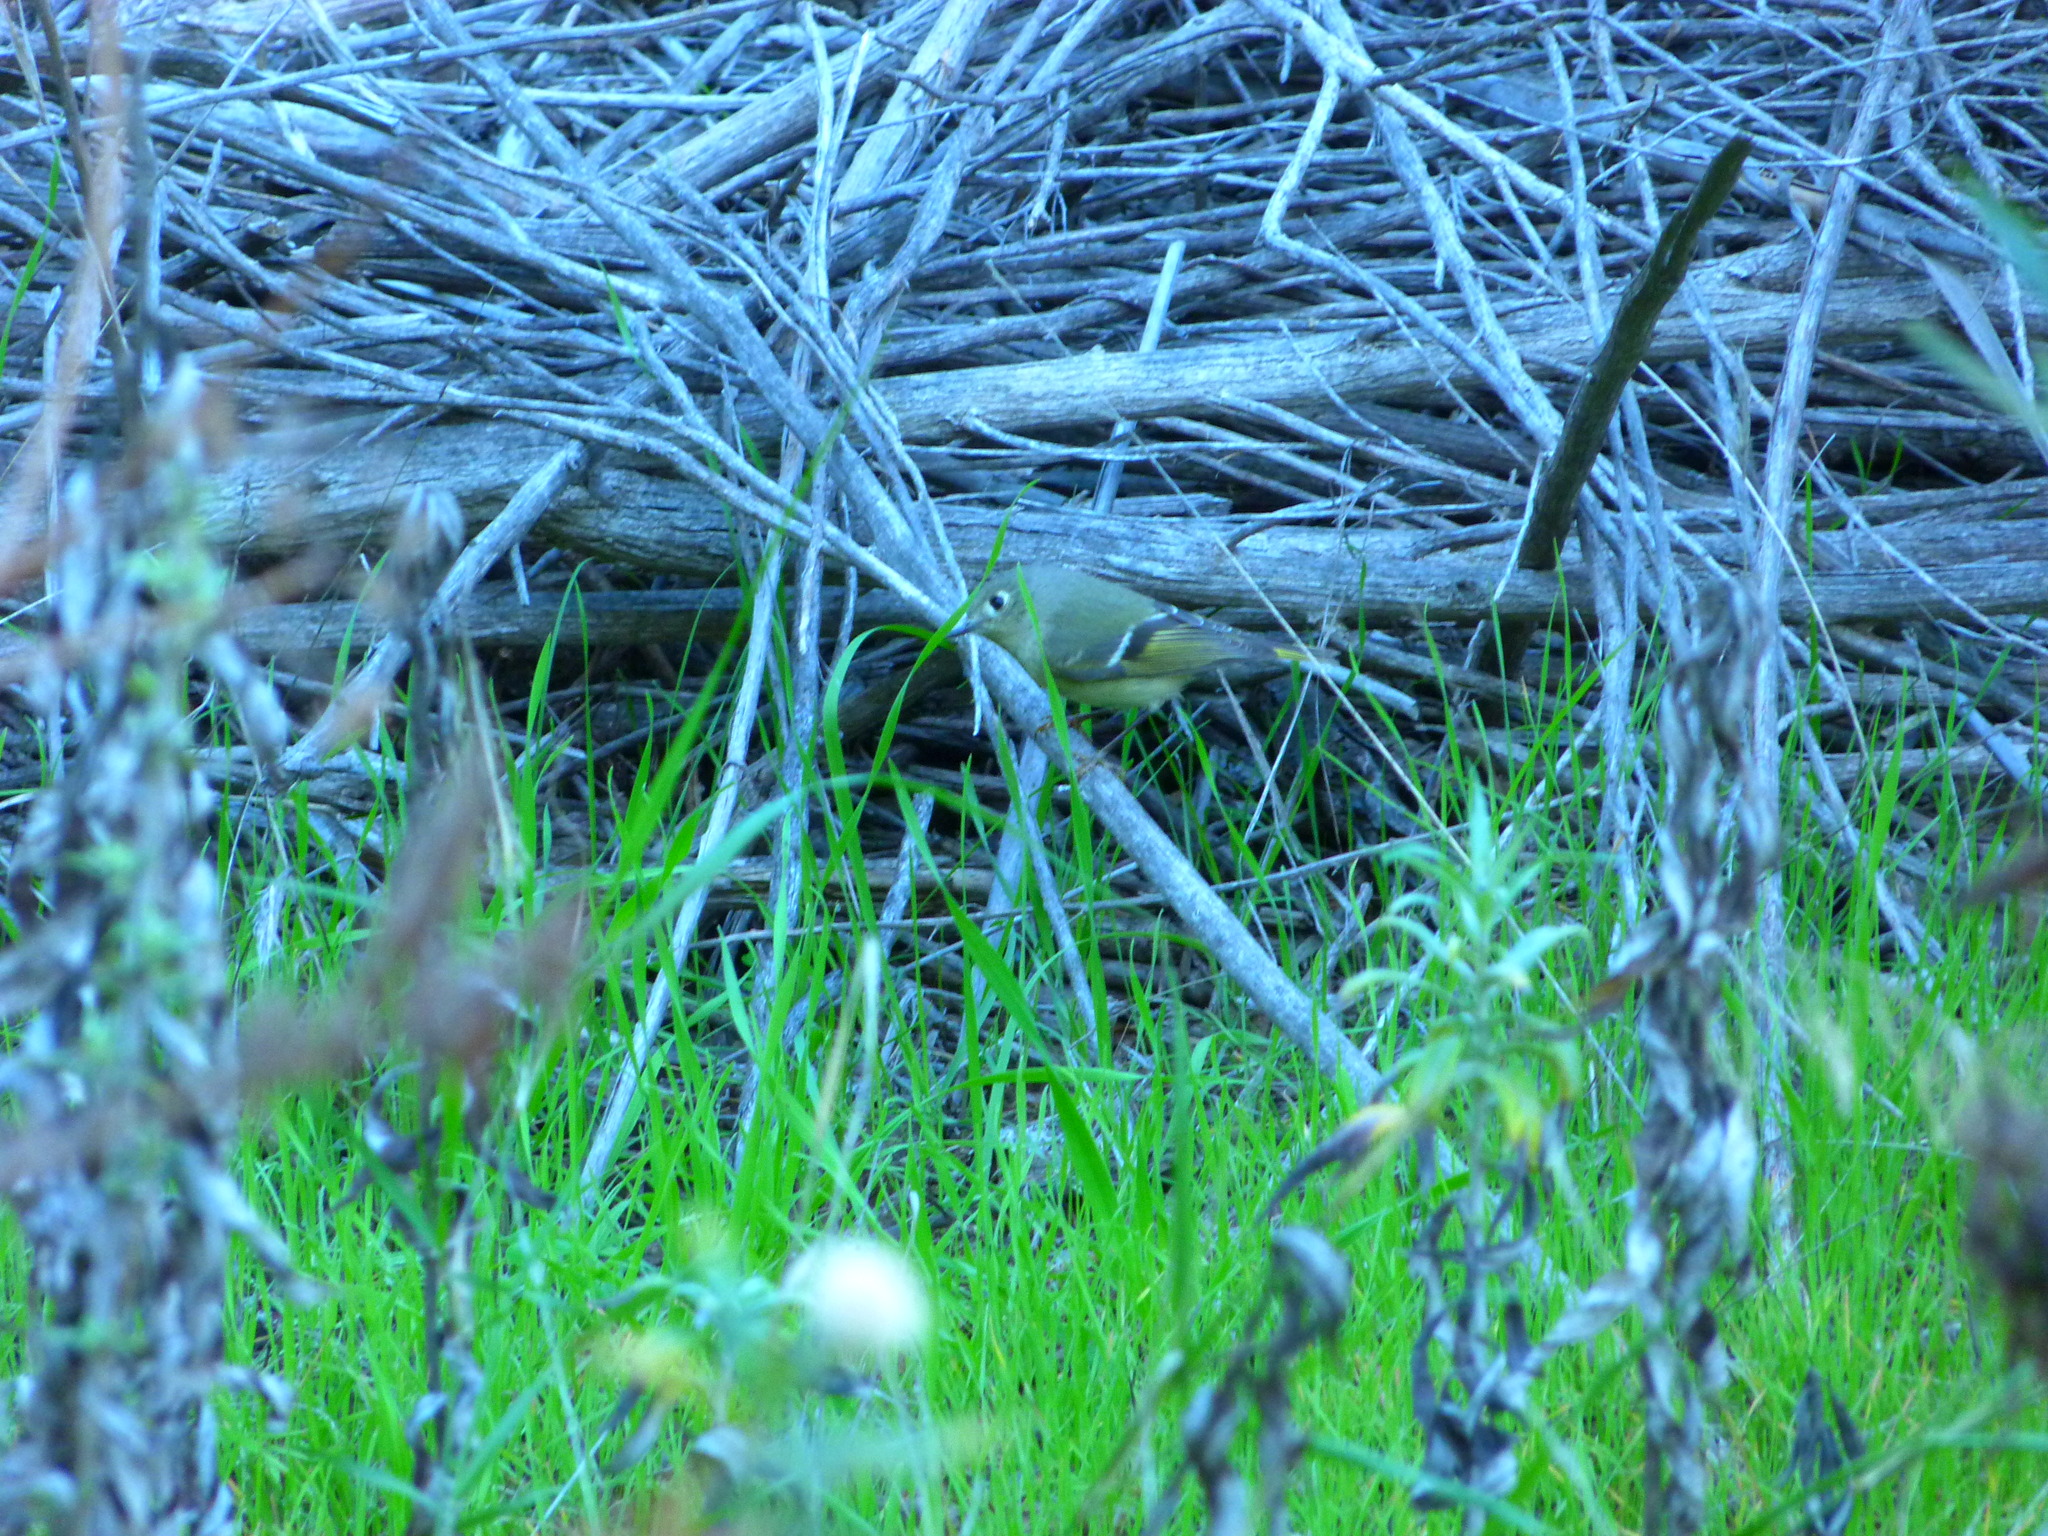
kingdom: Animalia
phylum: Chordata
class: Aves
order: Passeriformes
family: Regulidae
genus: Regulus
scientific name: Regulus calendula
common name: Ruby-crowned kinglet
